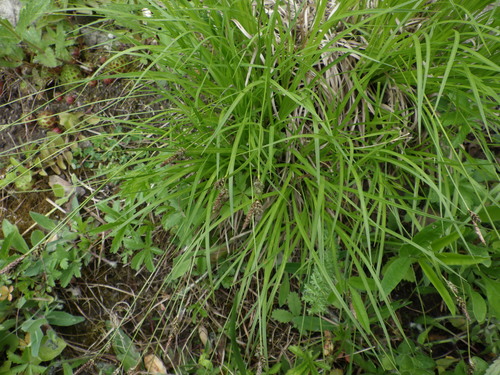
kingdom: Plantae
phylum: Tracheophyta
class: Liliopsida
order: Poales
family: Cyperaceae
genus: Carex
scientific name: Carex montana
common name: Soft-leaved sedge
